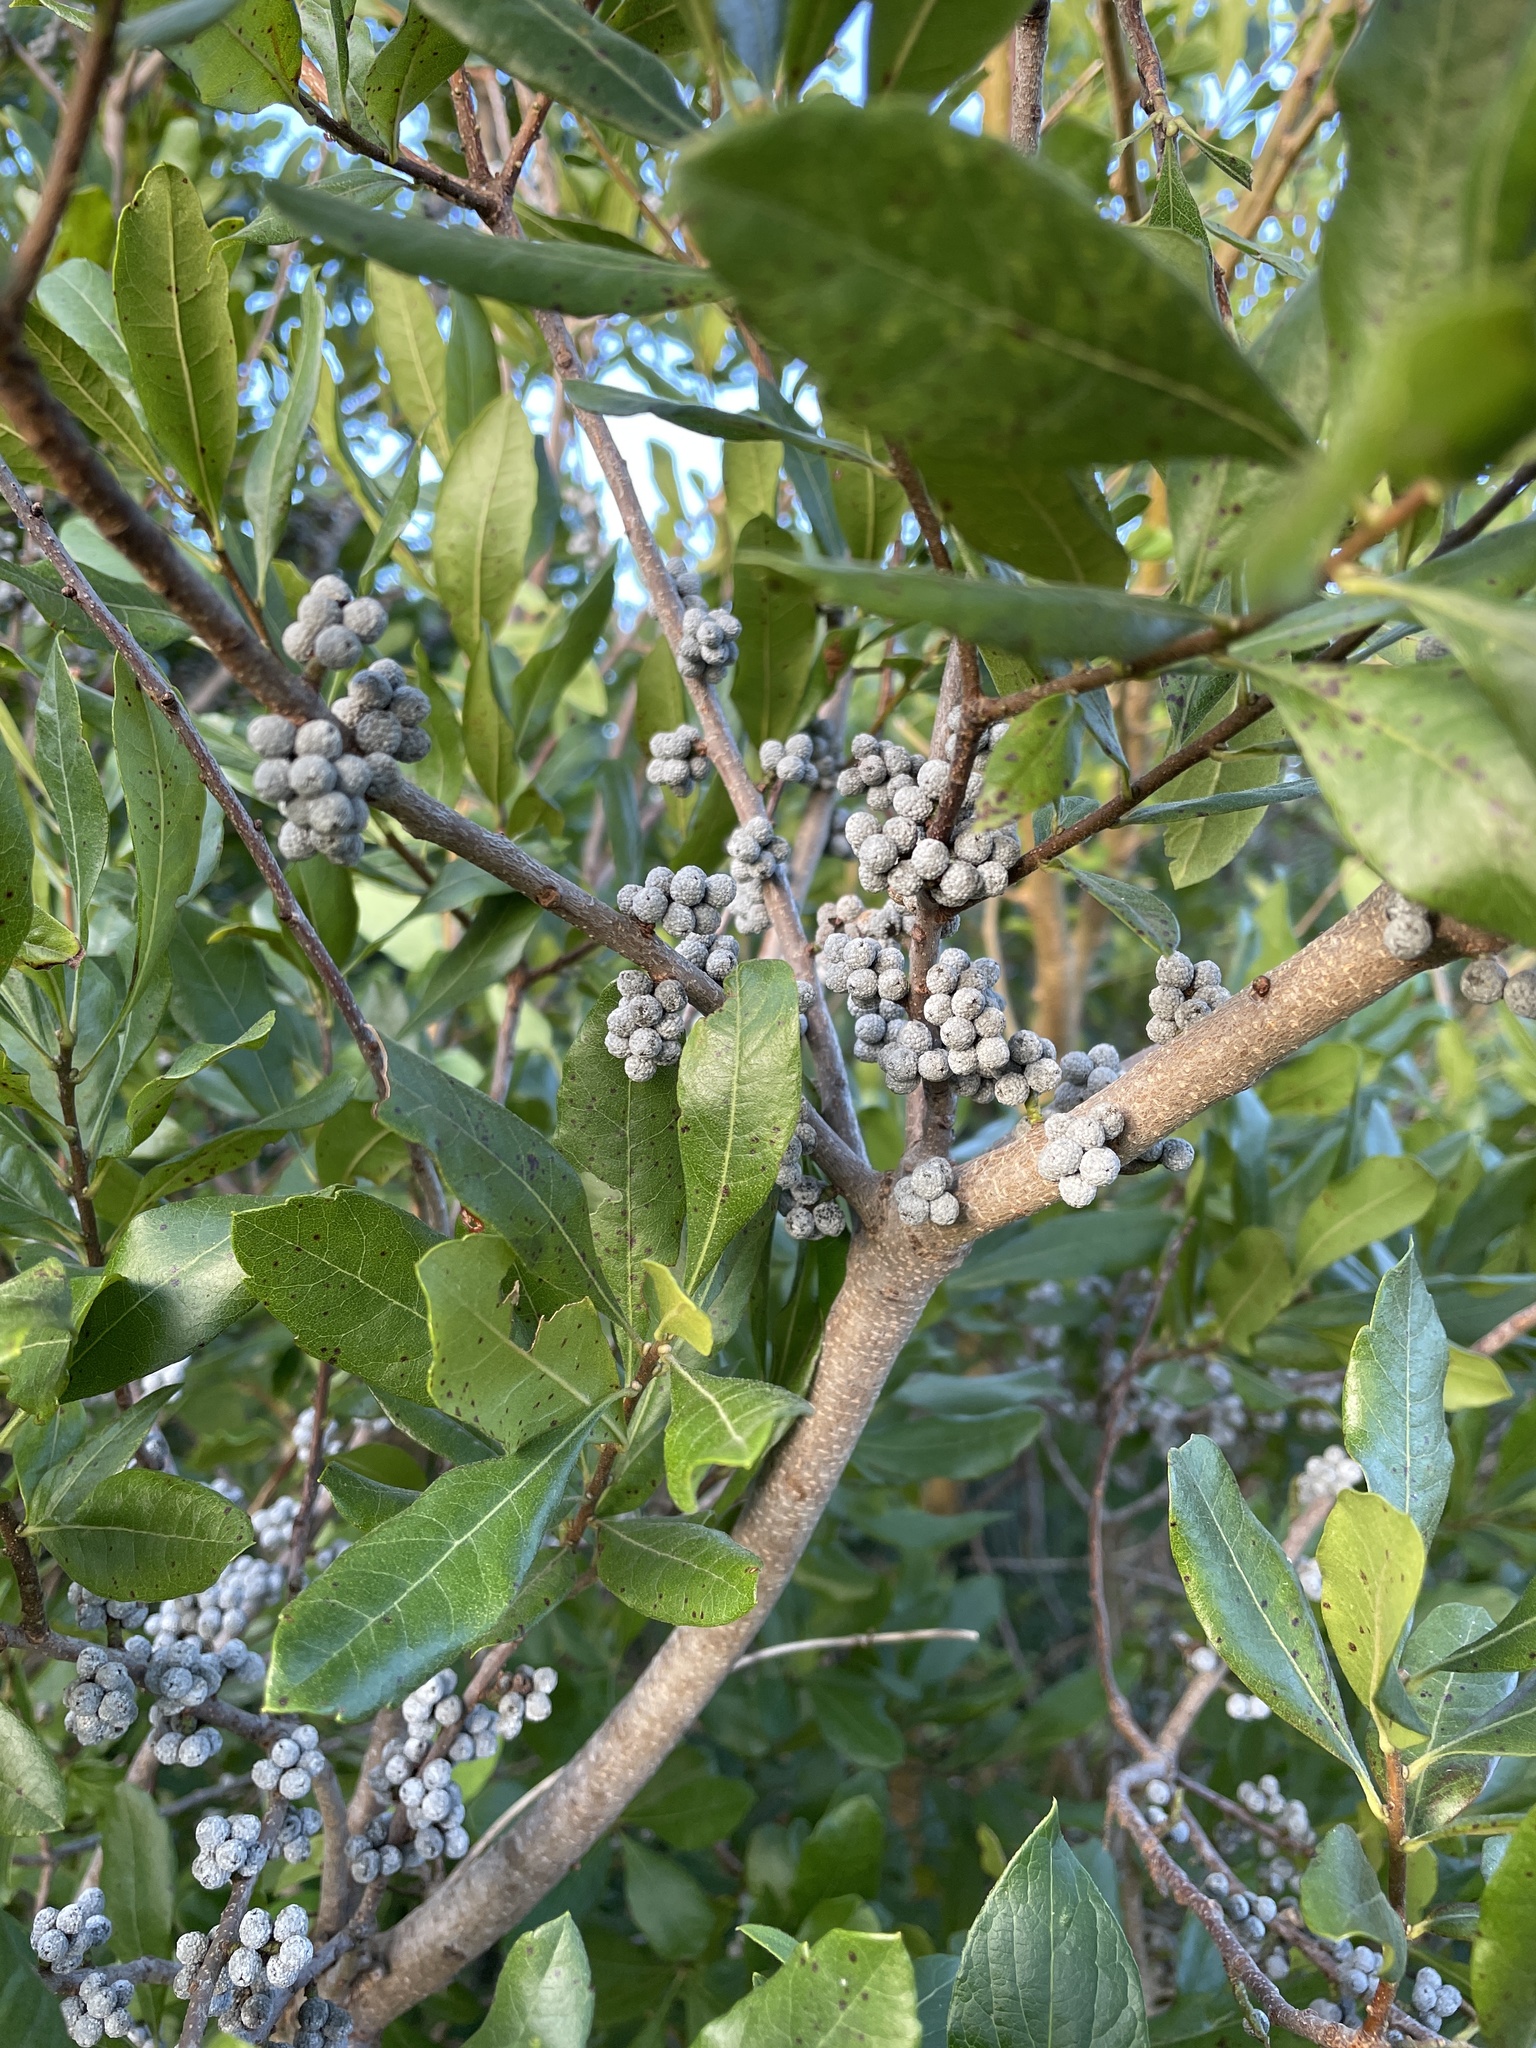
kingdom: Plantae
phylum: Tracheophyta
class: Magnoliopsida
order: Fagales
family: Myricaceae
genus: Morella
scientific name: Morella pensylvanica
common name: Northern bayberry
